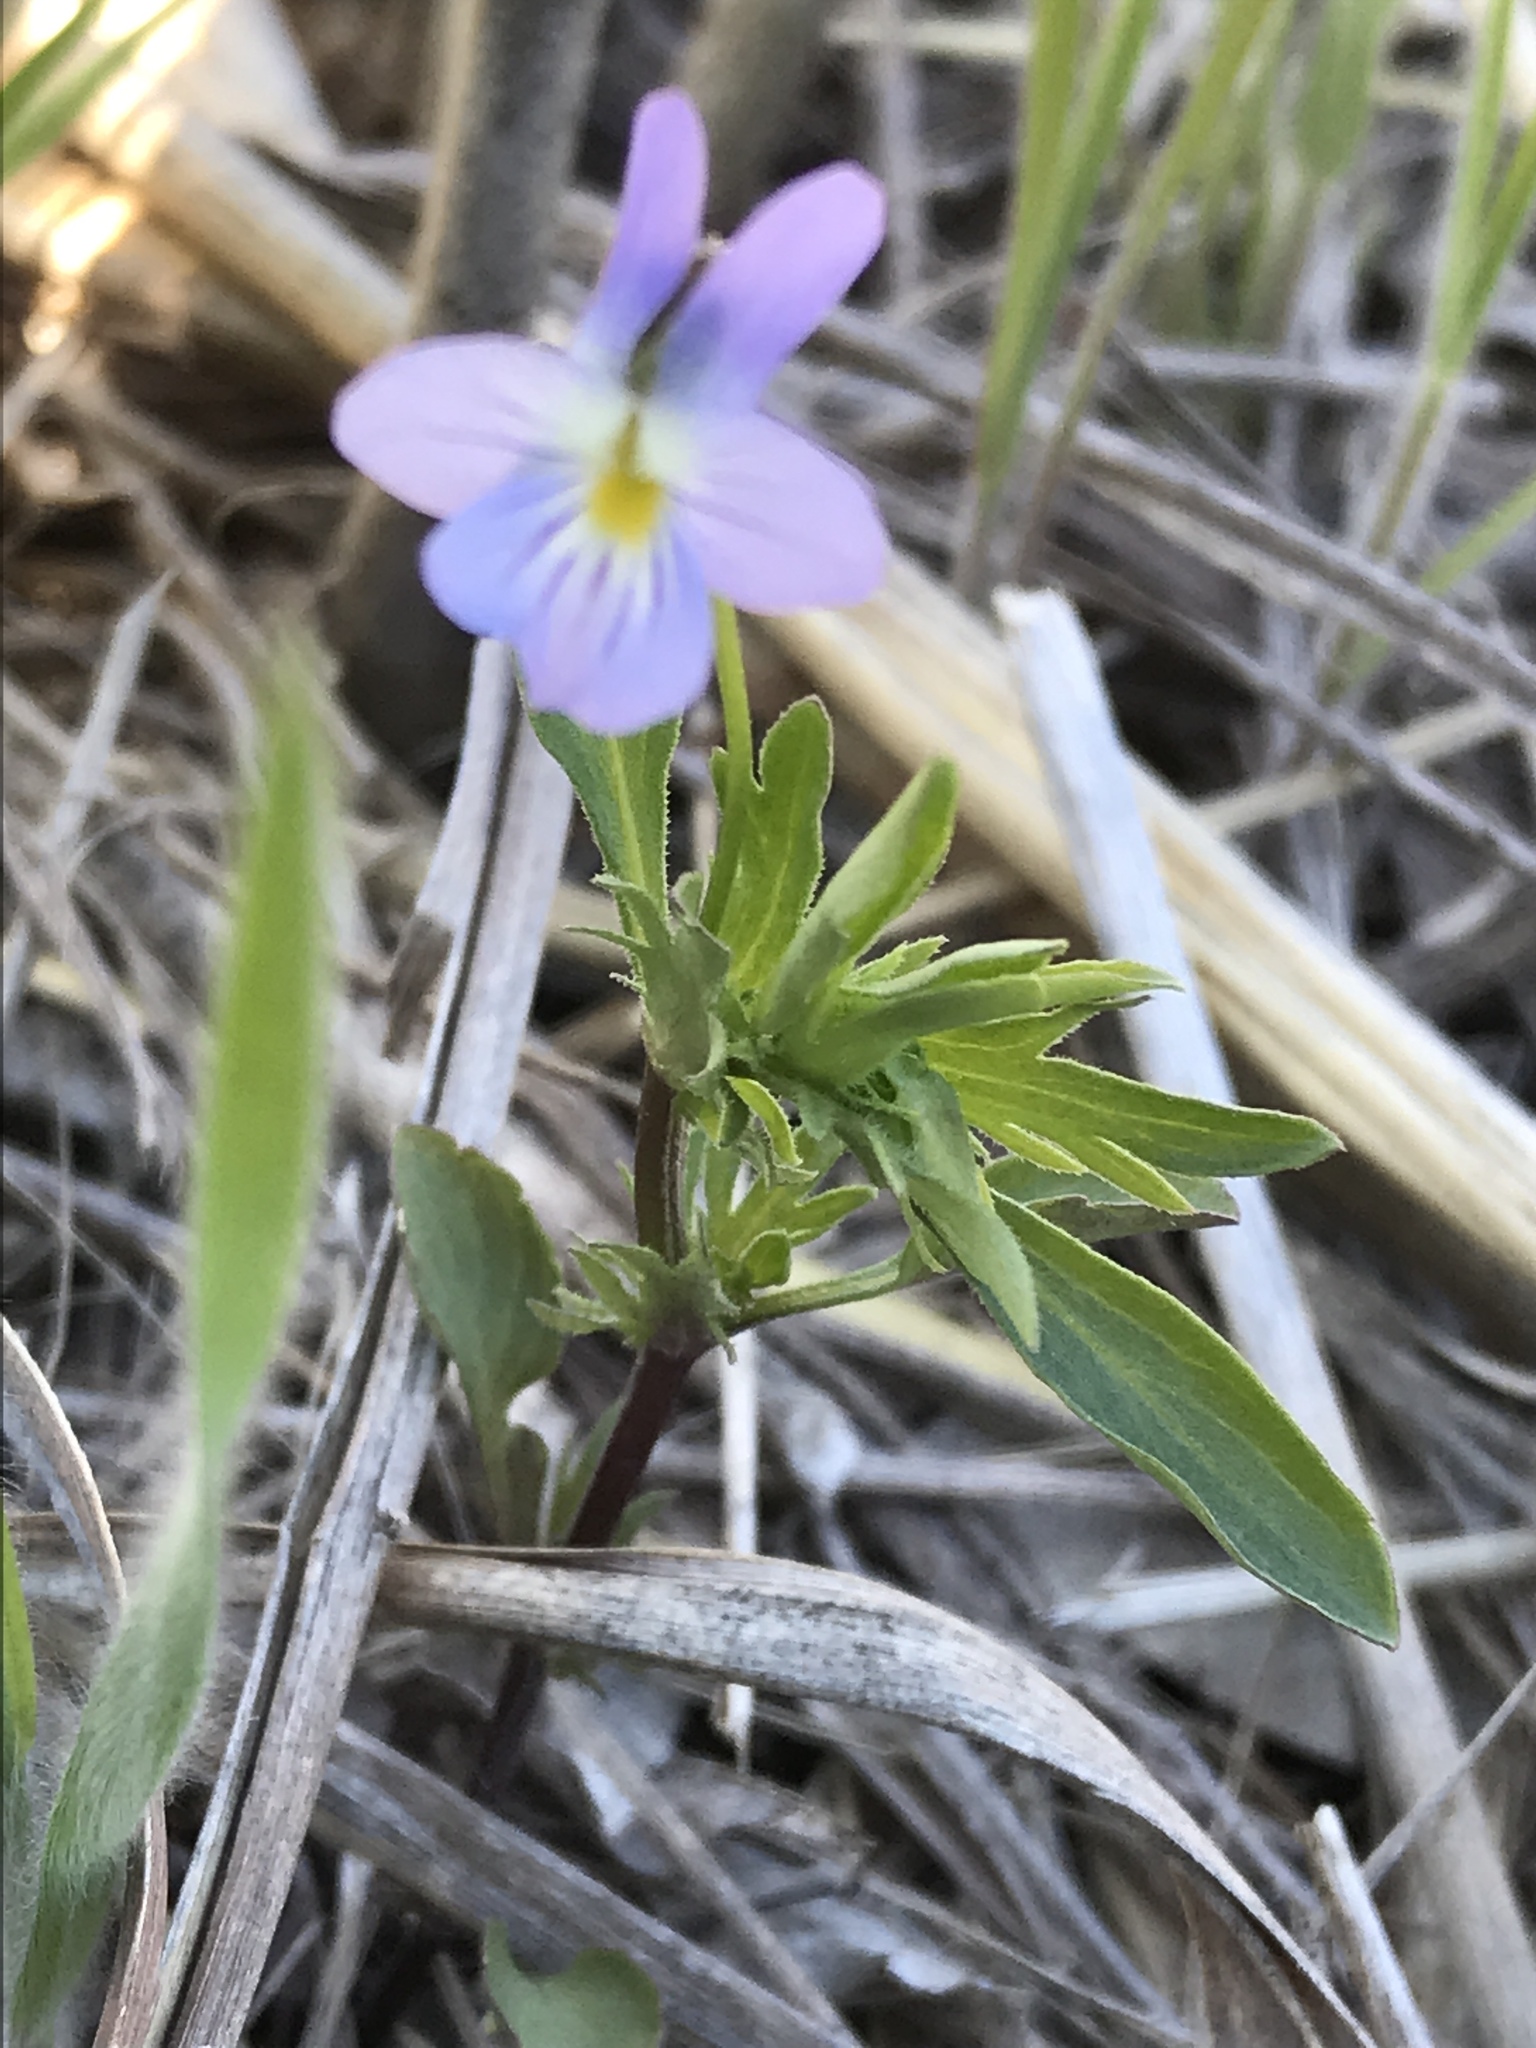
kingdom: Plantae
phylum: Tracheophyta
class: Magnoliopsida
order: Malpighiales
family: Violaceae
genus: Viola
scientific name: Viola rafinesquei
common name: American field pansy
